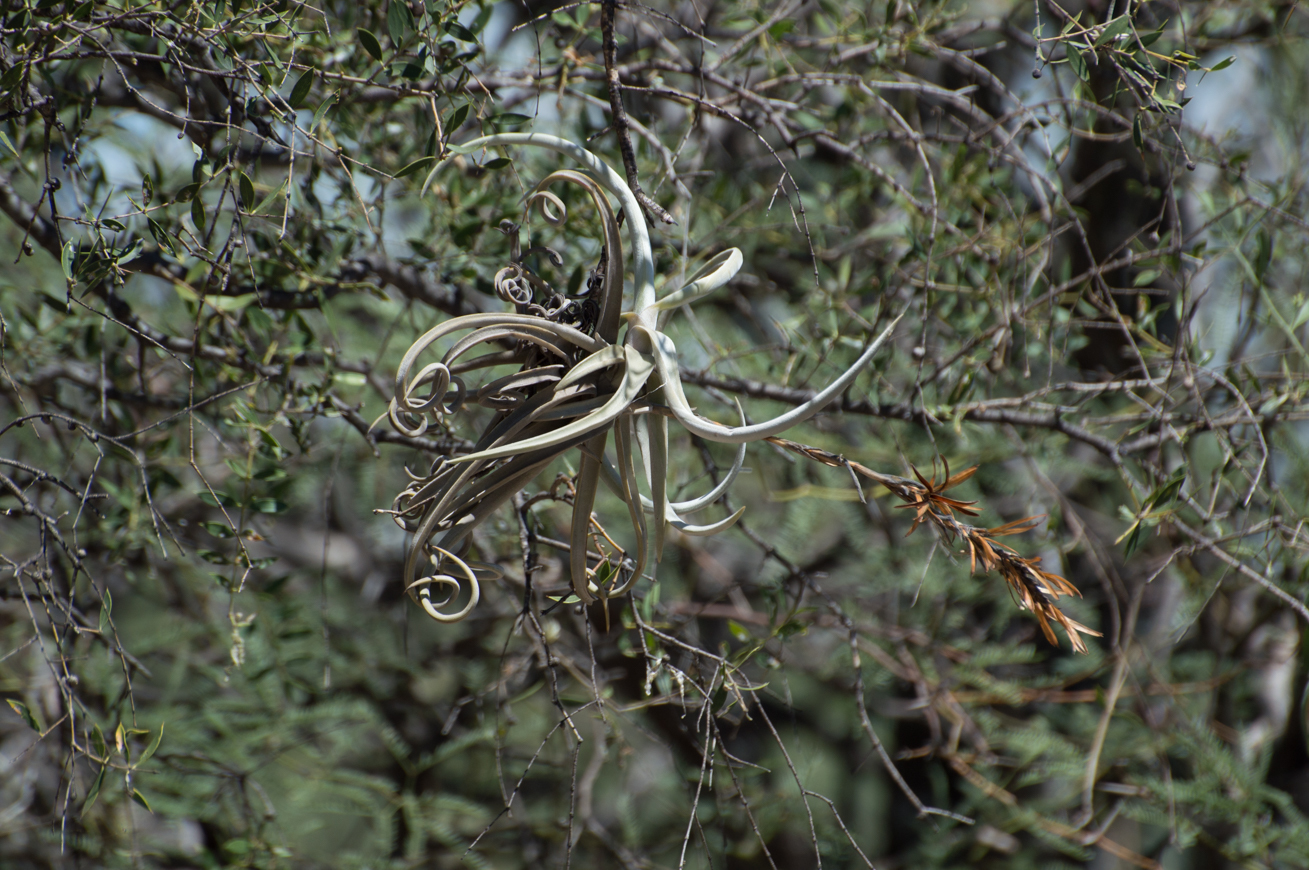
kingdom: Plantae
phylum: Tracheophyta
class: Liliopsida
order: Poales
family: Bromeliaceae
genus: Tillandsia
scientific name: Tillandsia duratii
